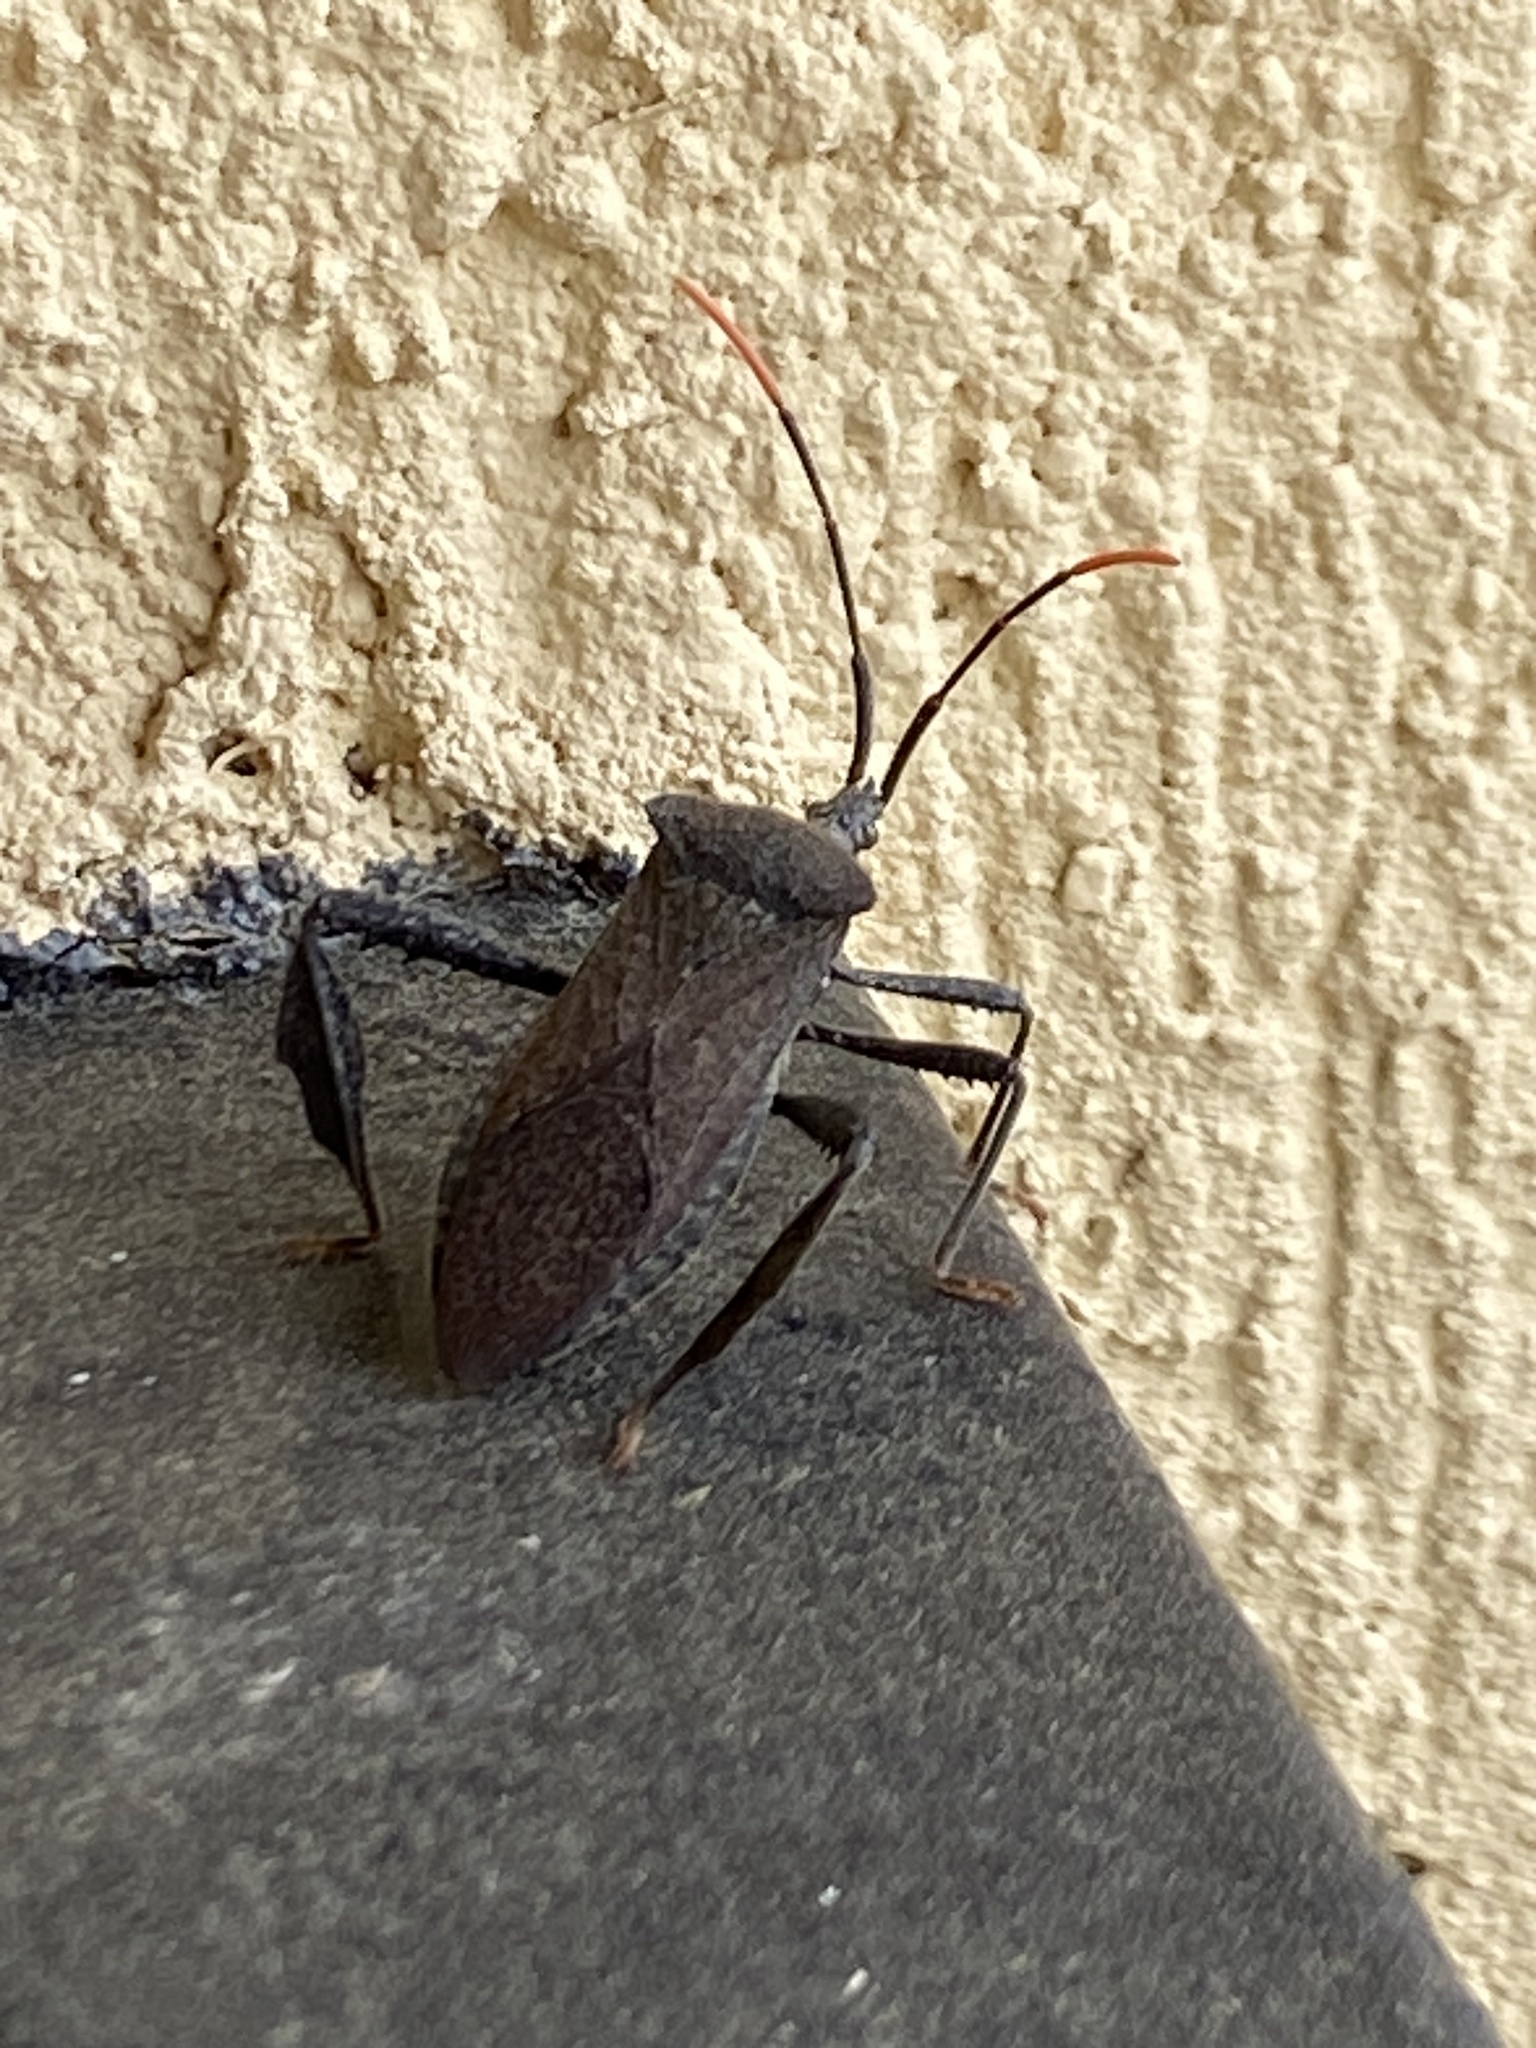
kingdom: Animalia
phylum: Arthropoda
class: Insecta
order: Hemiptera
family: Coreidae
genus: Acanthocephala
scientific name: Acanthocephala terminalis
